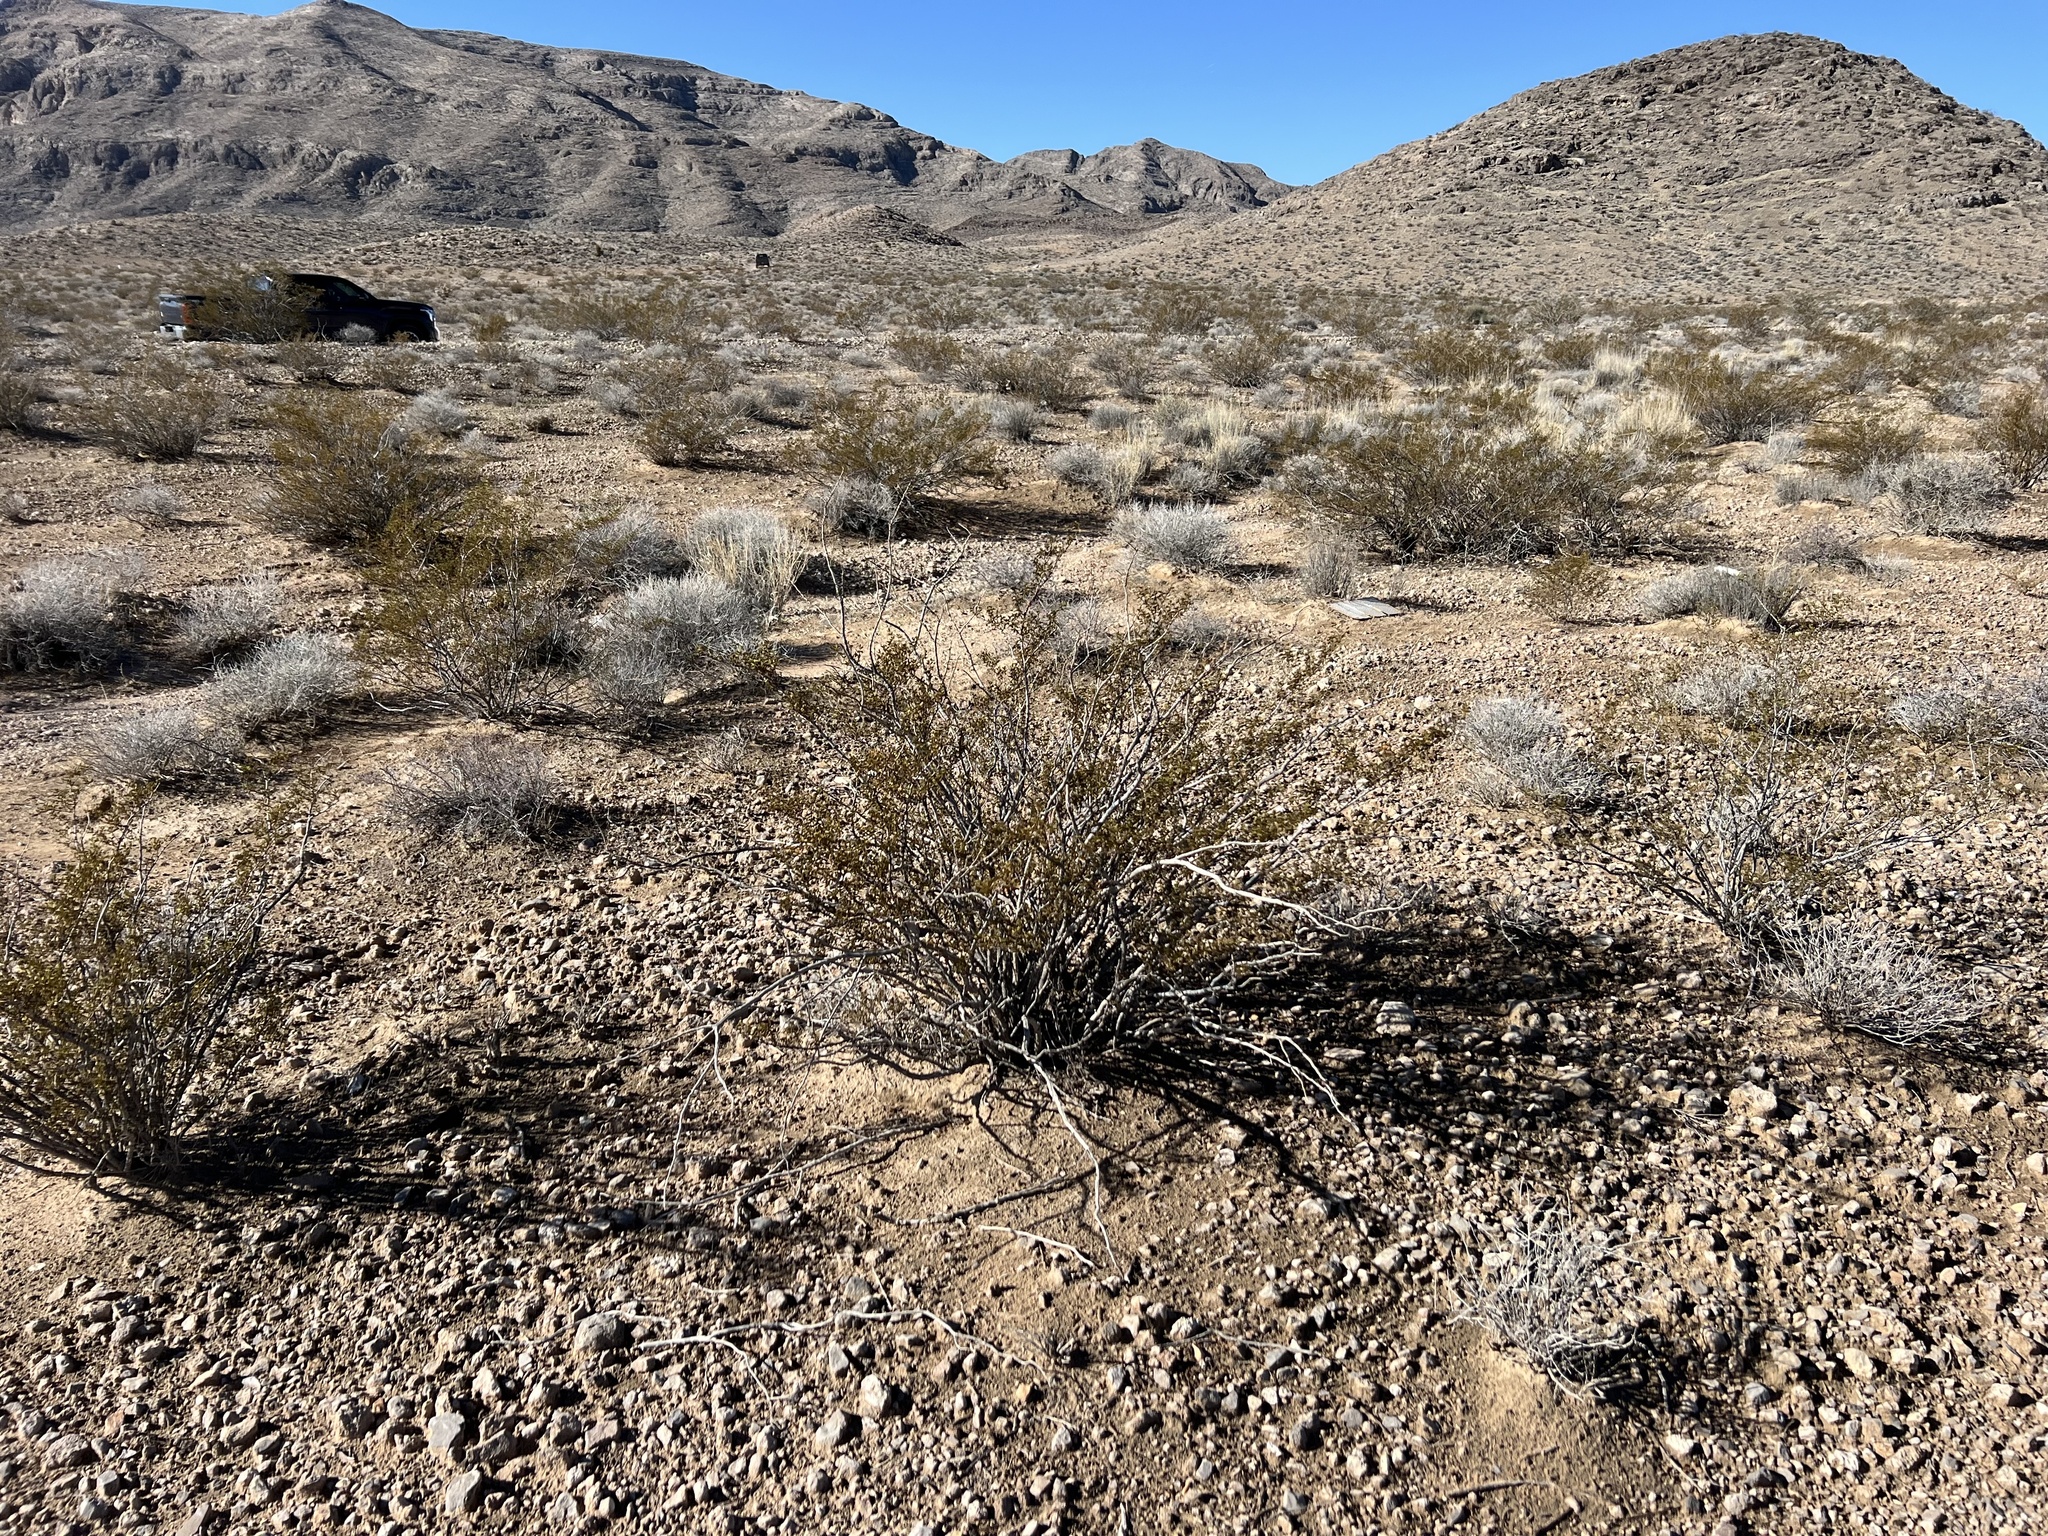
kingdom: Plantae
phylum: Tracheophyta
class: Magnoliopsida
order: Zygophyllales
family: Zygophyllaceae
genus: Larrea
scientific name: Larrea tridentata
